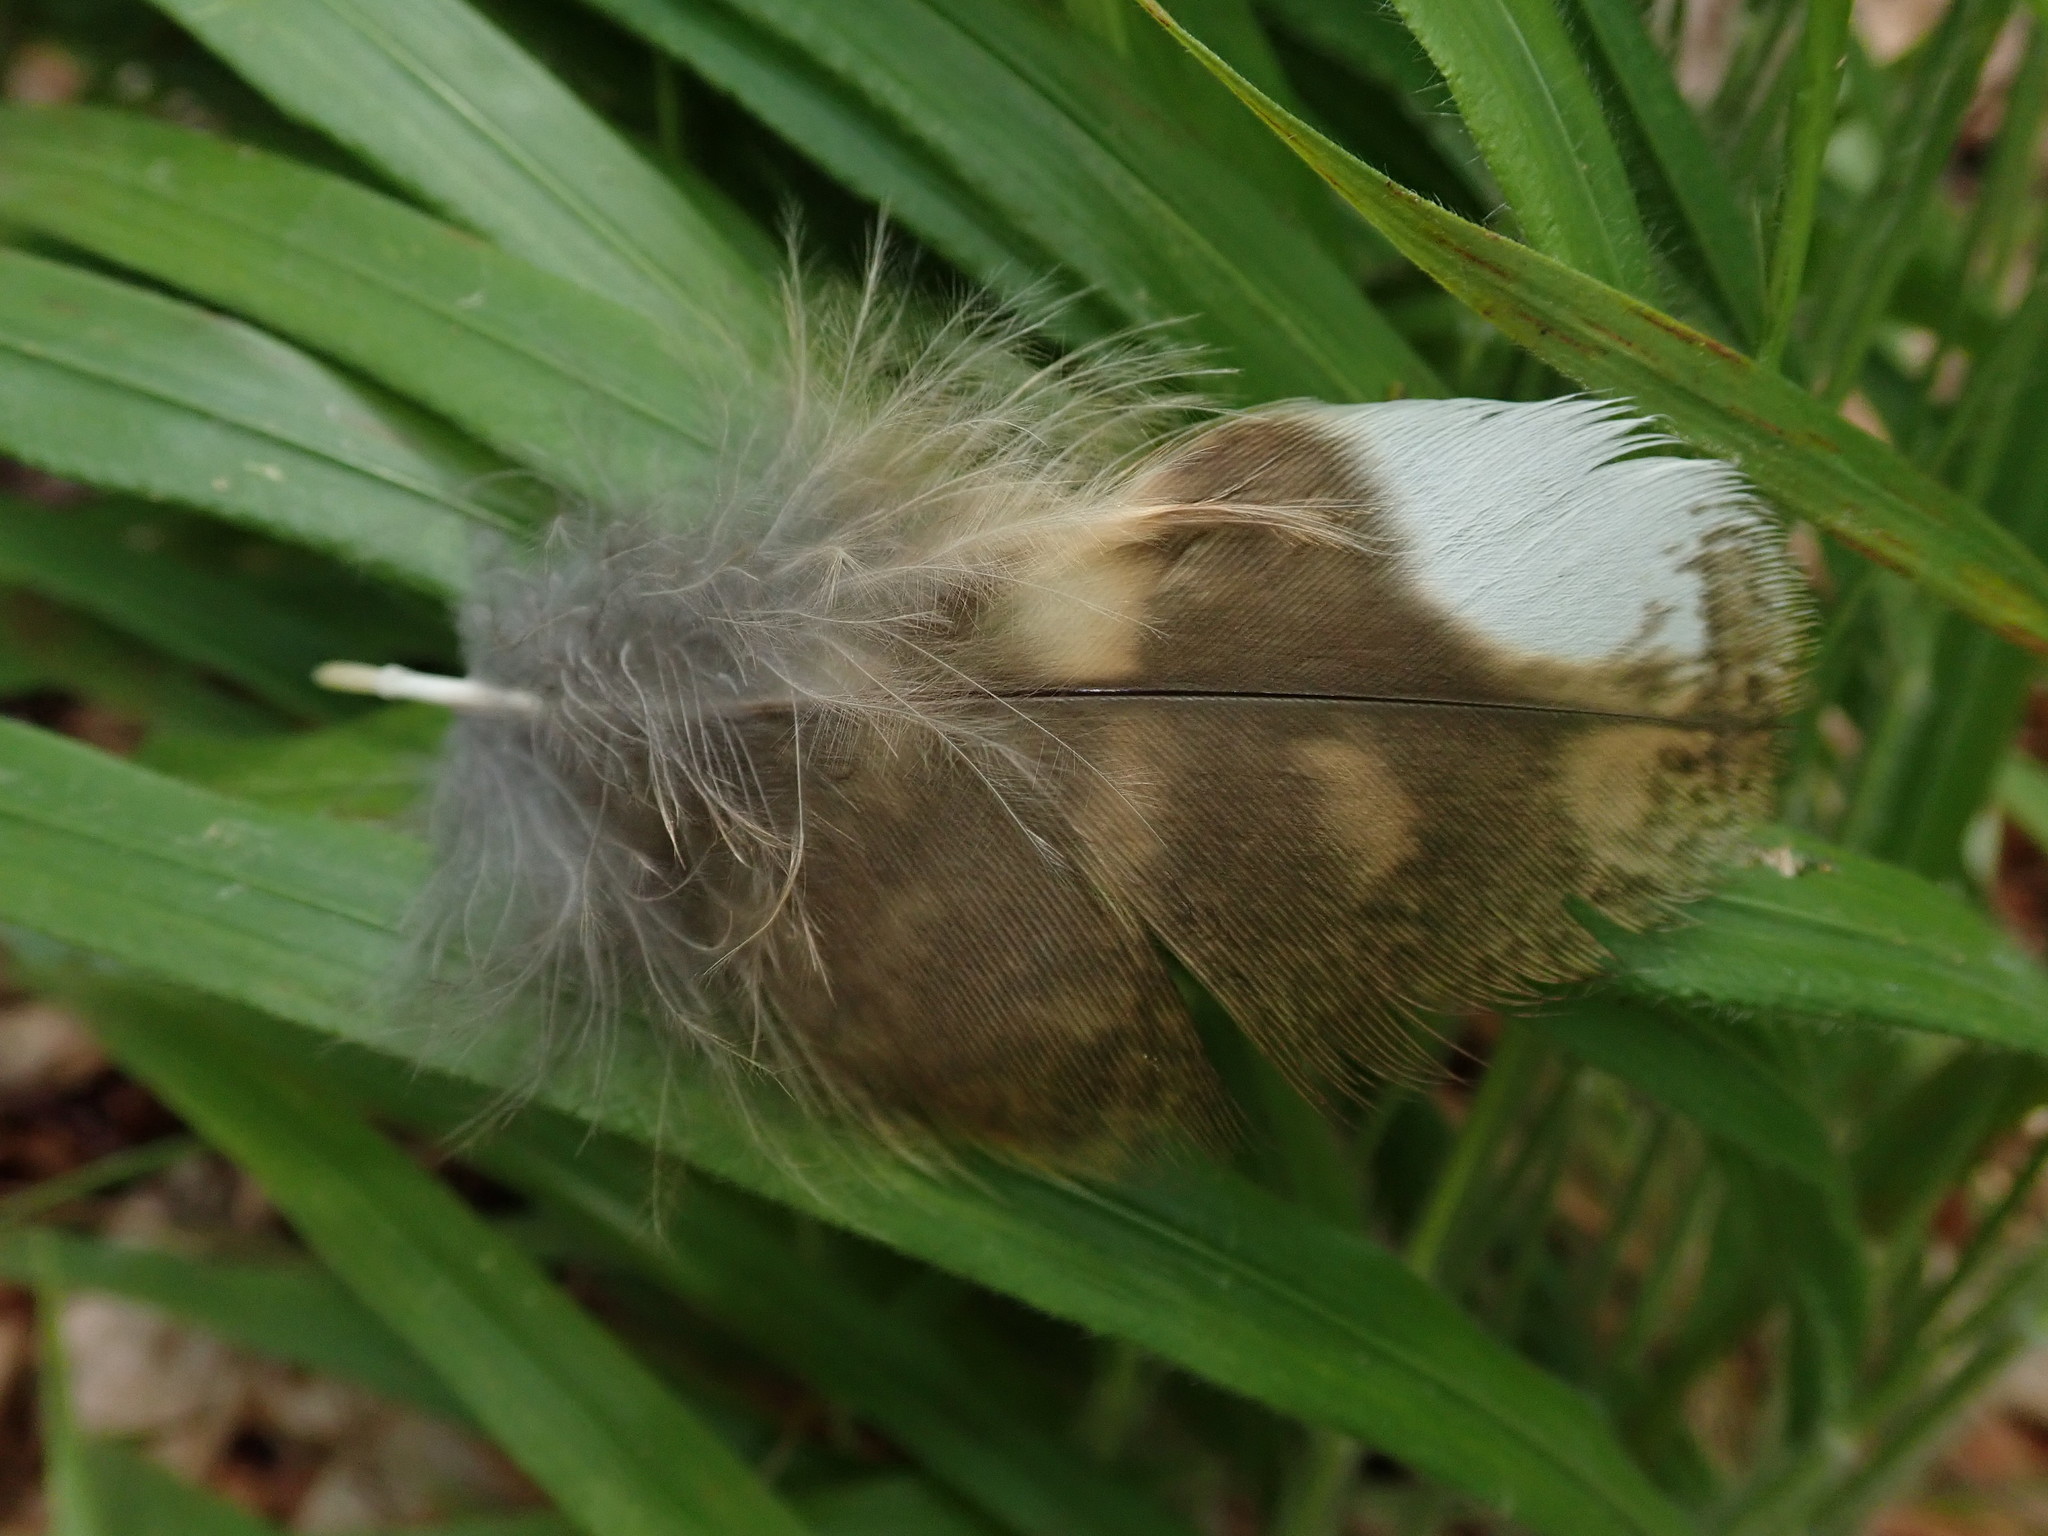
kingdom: Animalia
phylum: Chordata
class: Aves
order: Strigiformes
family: Strigidae
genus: Strix
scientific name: Strix aluco
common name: Tawny owl
